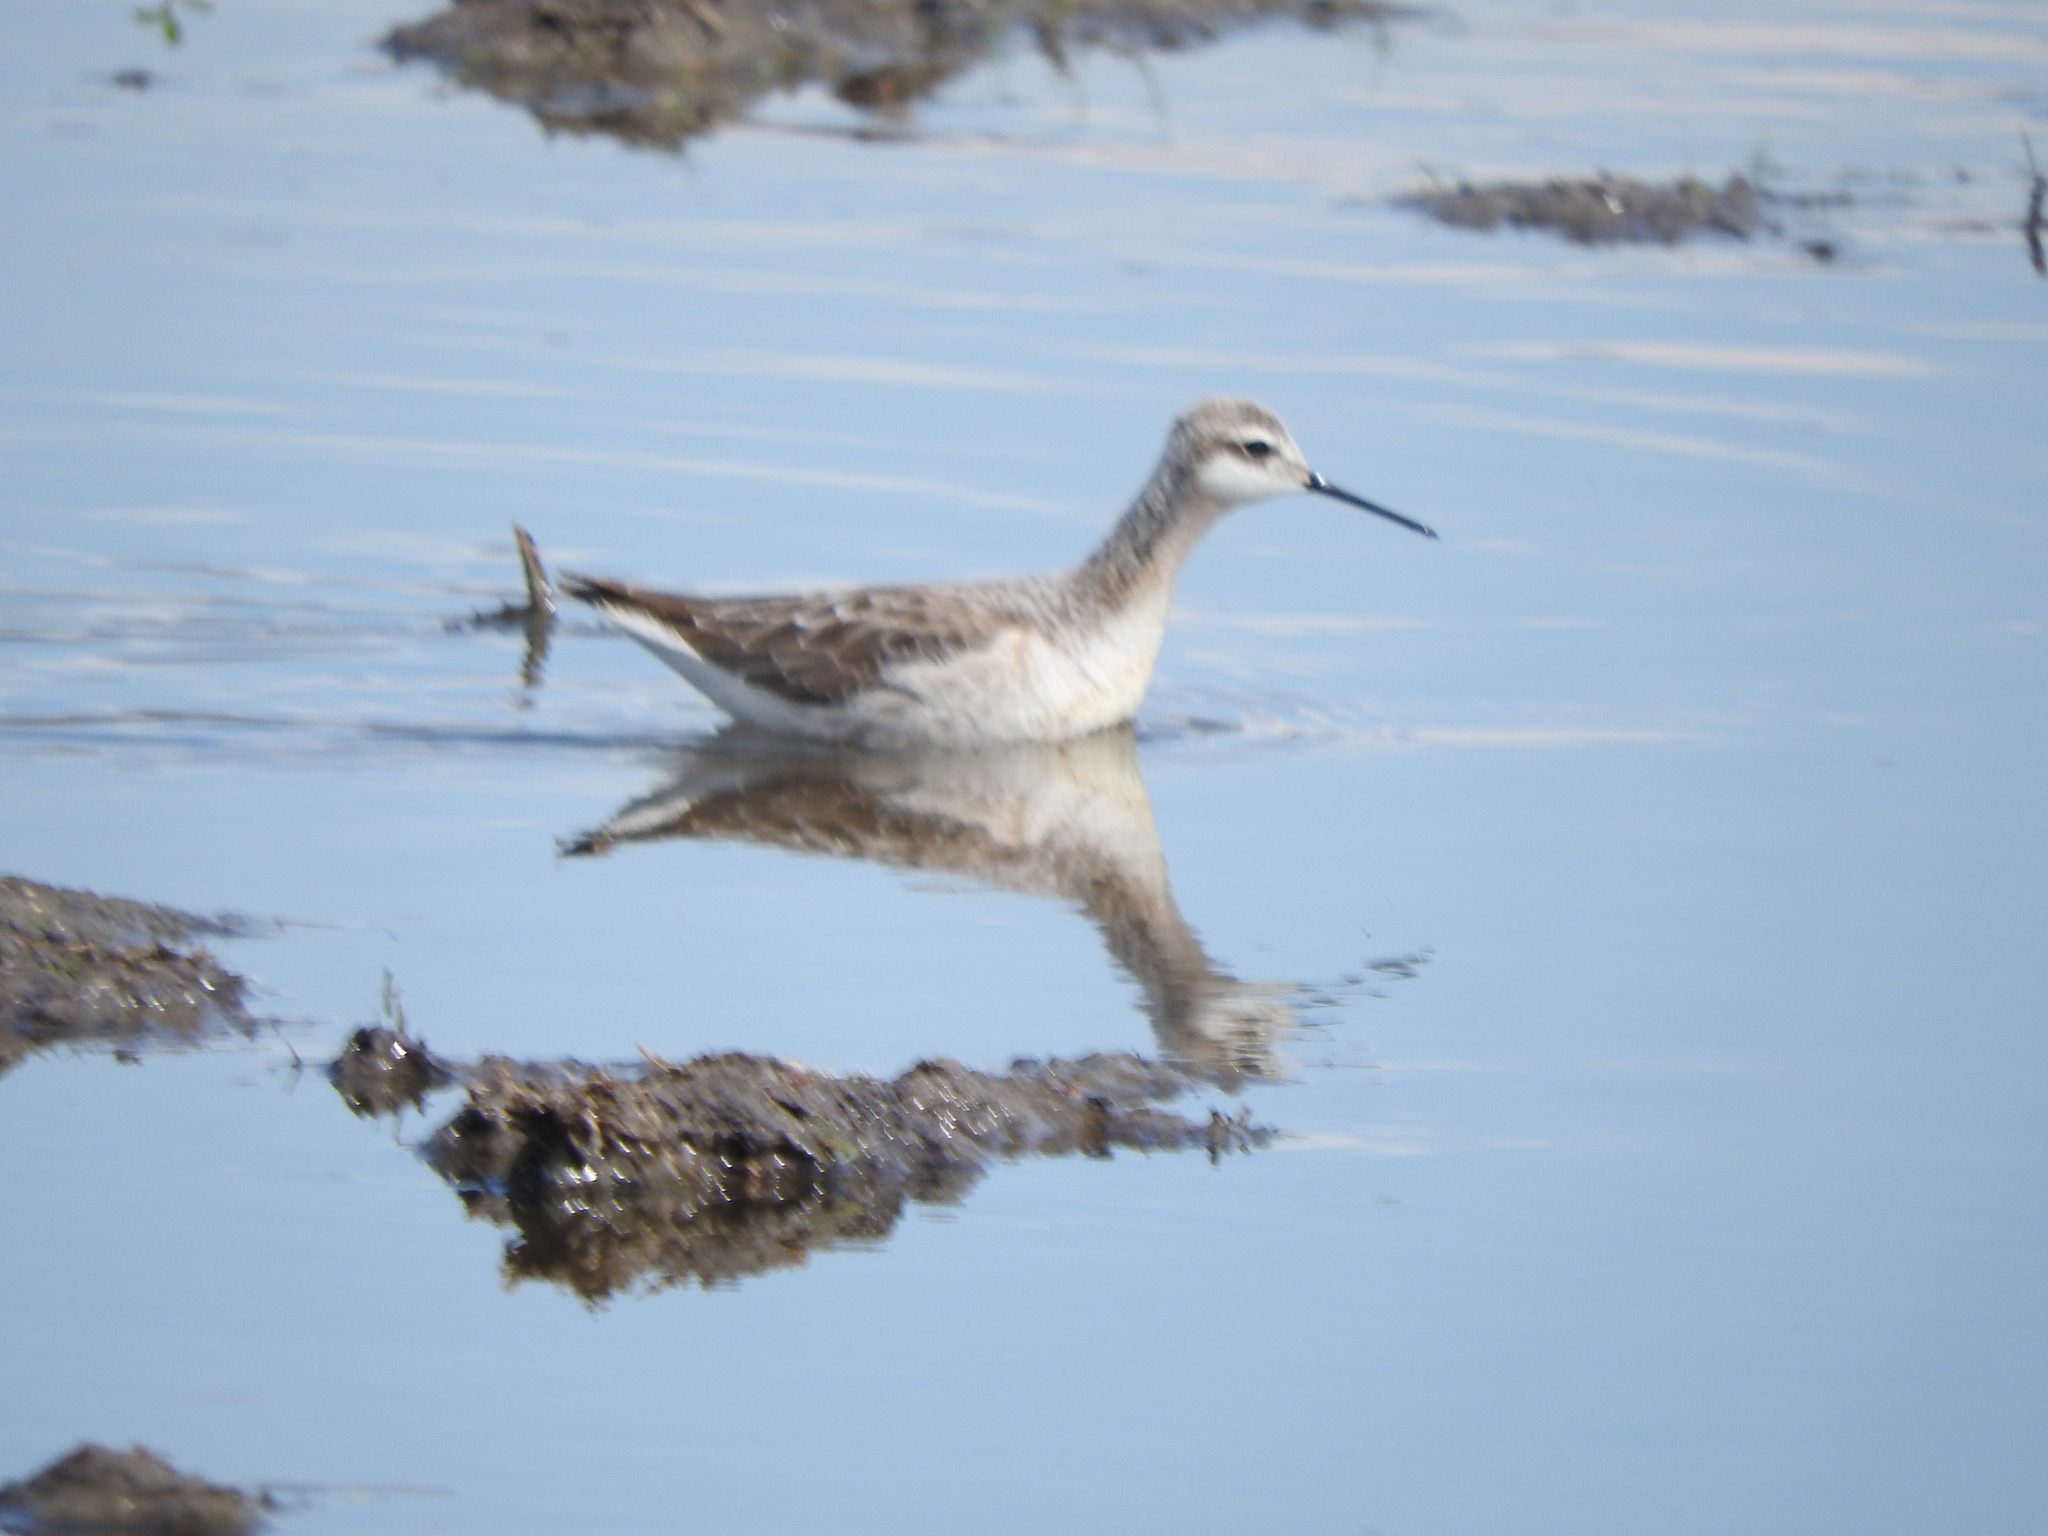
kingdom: Animalia
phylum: Chordata
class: Aves
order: Charadriiformes
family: Scolopacidae
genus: Phalaropus
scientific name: Phalaropus tricolor
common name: Wilson's phalarope
